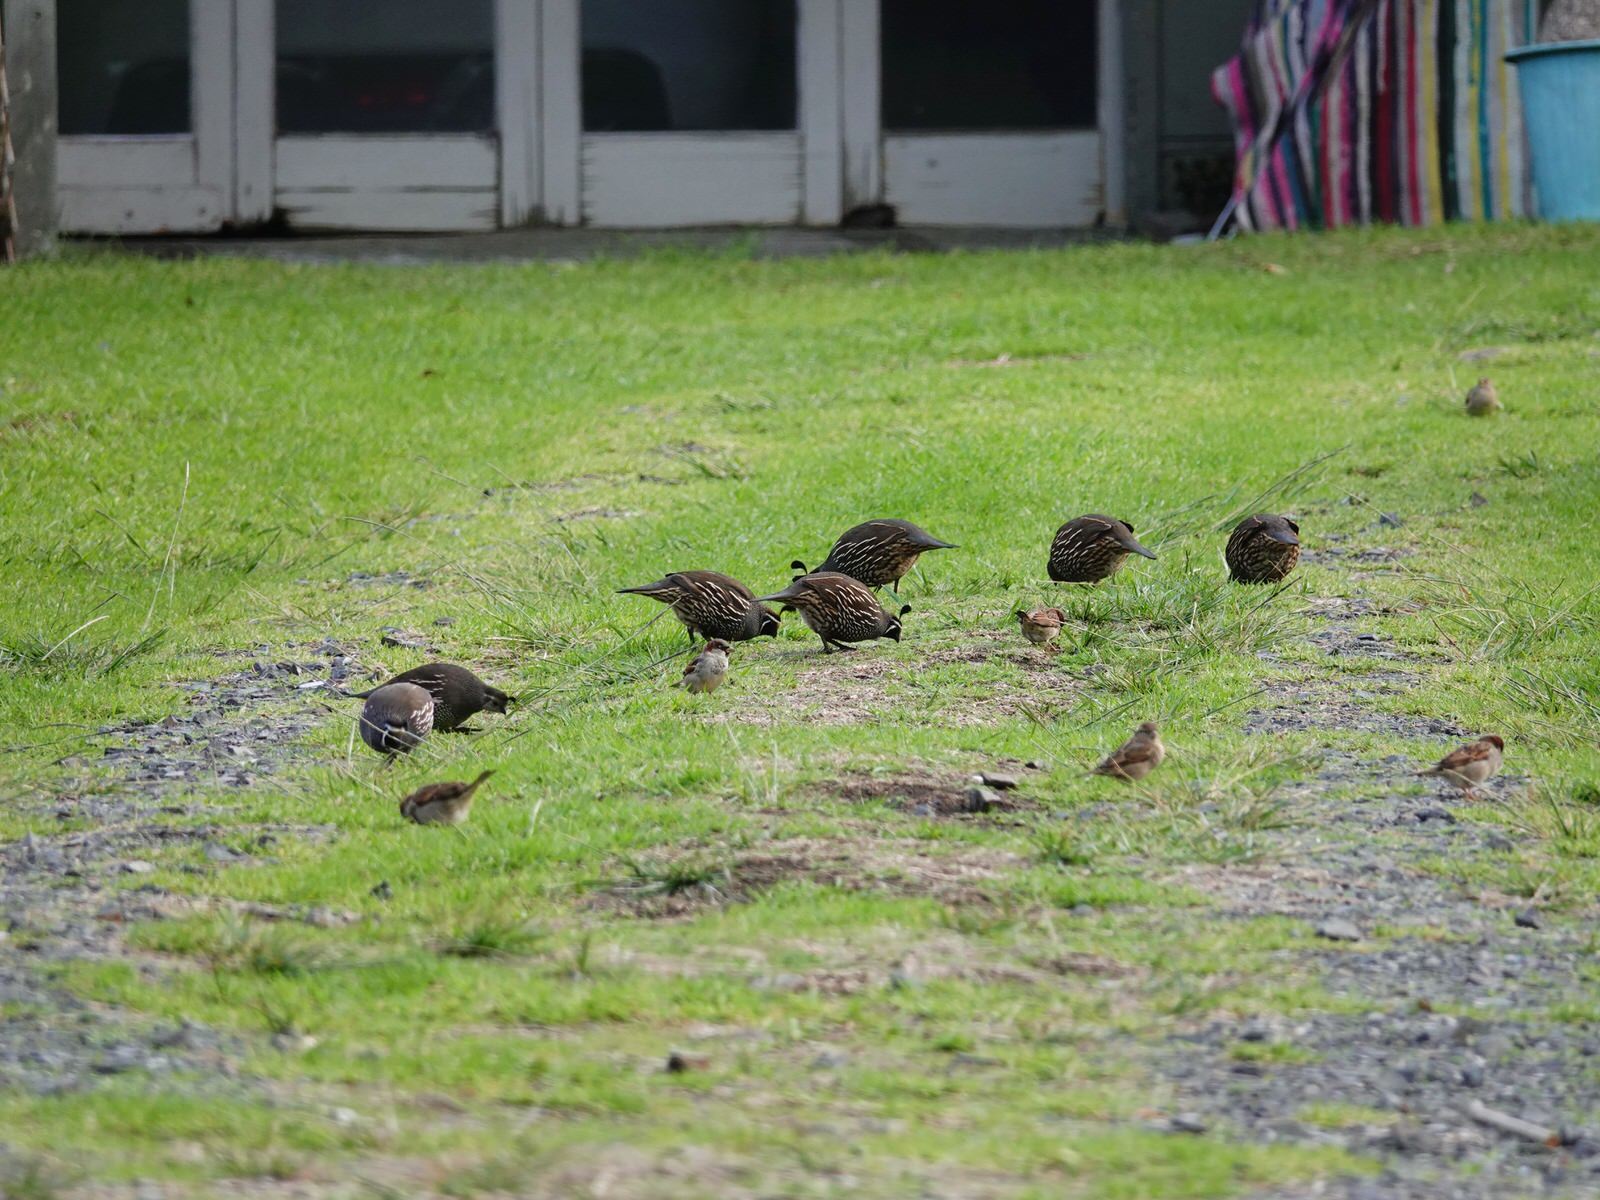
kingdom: Animalia
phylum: Chordata
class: Aves
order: Galliformes
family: Odontophoridae
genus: Callipepla
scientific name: Callipepla californica
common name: California quail
